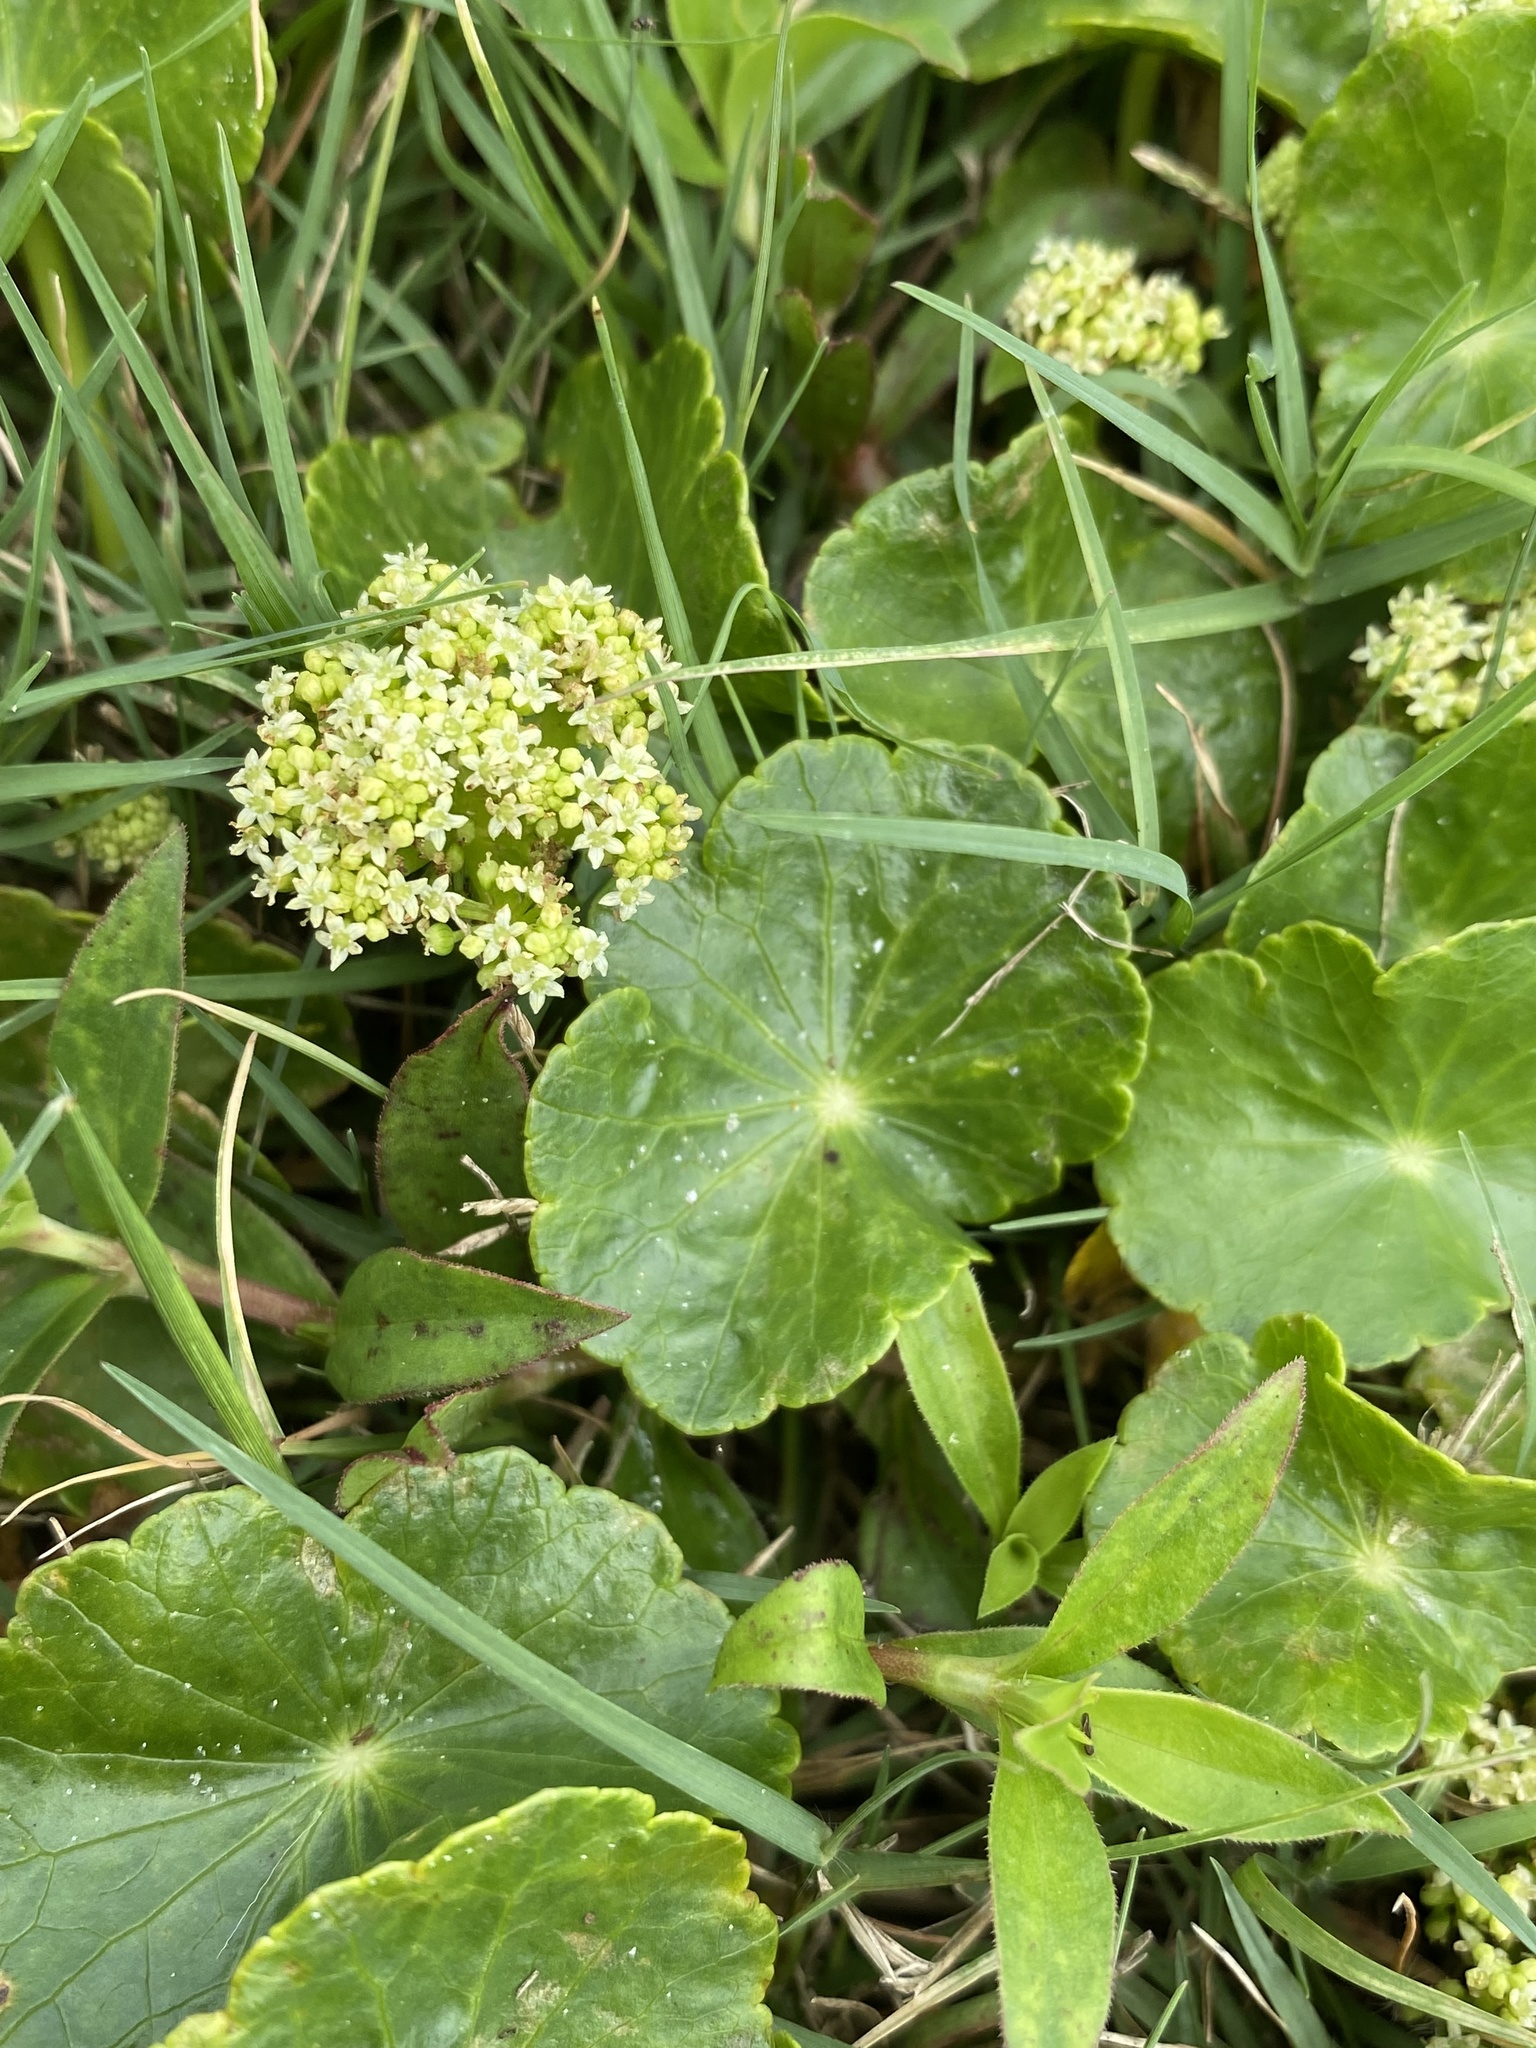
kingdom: Plantae
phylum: Tracheophyta
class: Magnoliopsida
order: Apiales
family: Araliaceae
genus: Hydrocotyle
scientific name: Hydrocotyle bonariensis
